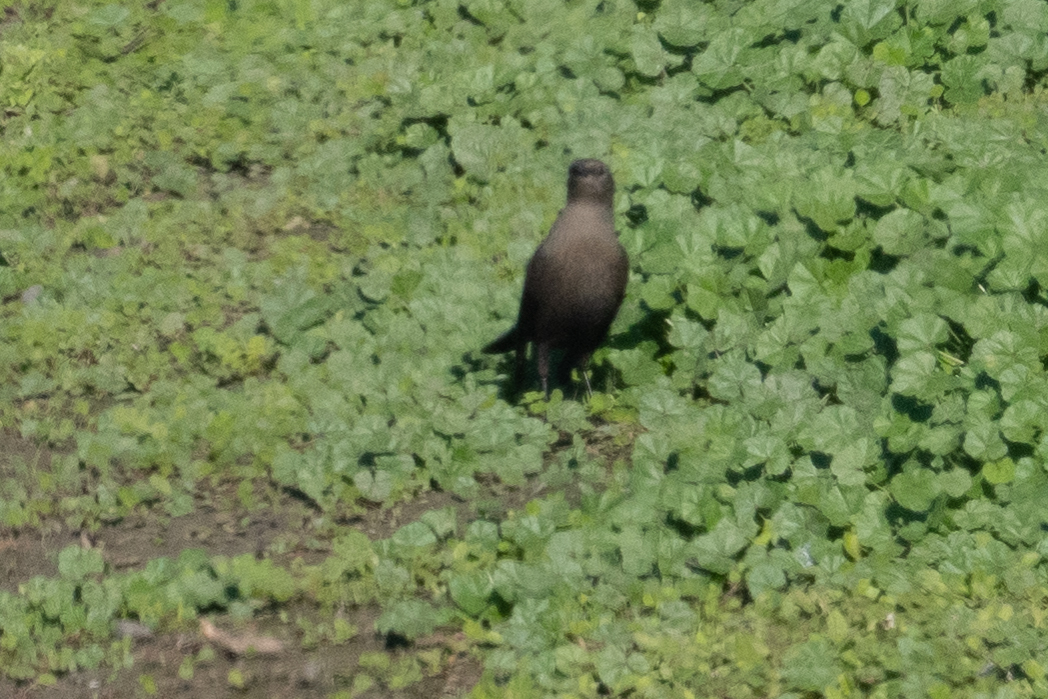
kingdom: Animalia
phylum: Chordata
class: Aves
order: Passeriformes
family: Icteridae
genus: Euphagus
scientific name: Euphagus cyanocephalus
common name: Brewer's blackbird
